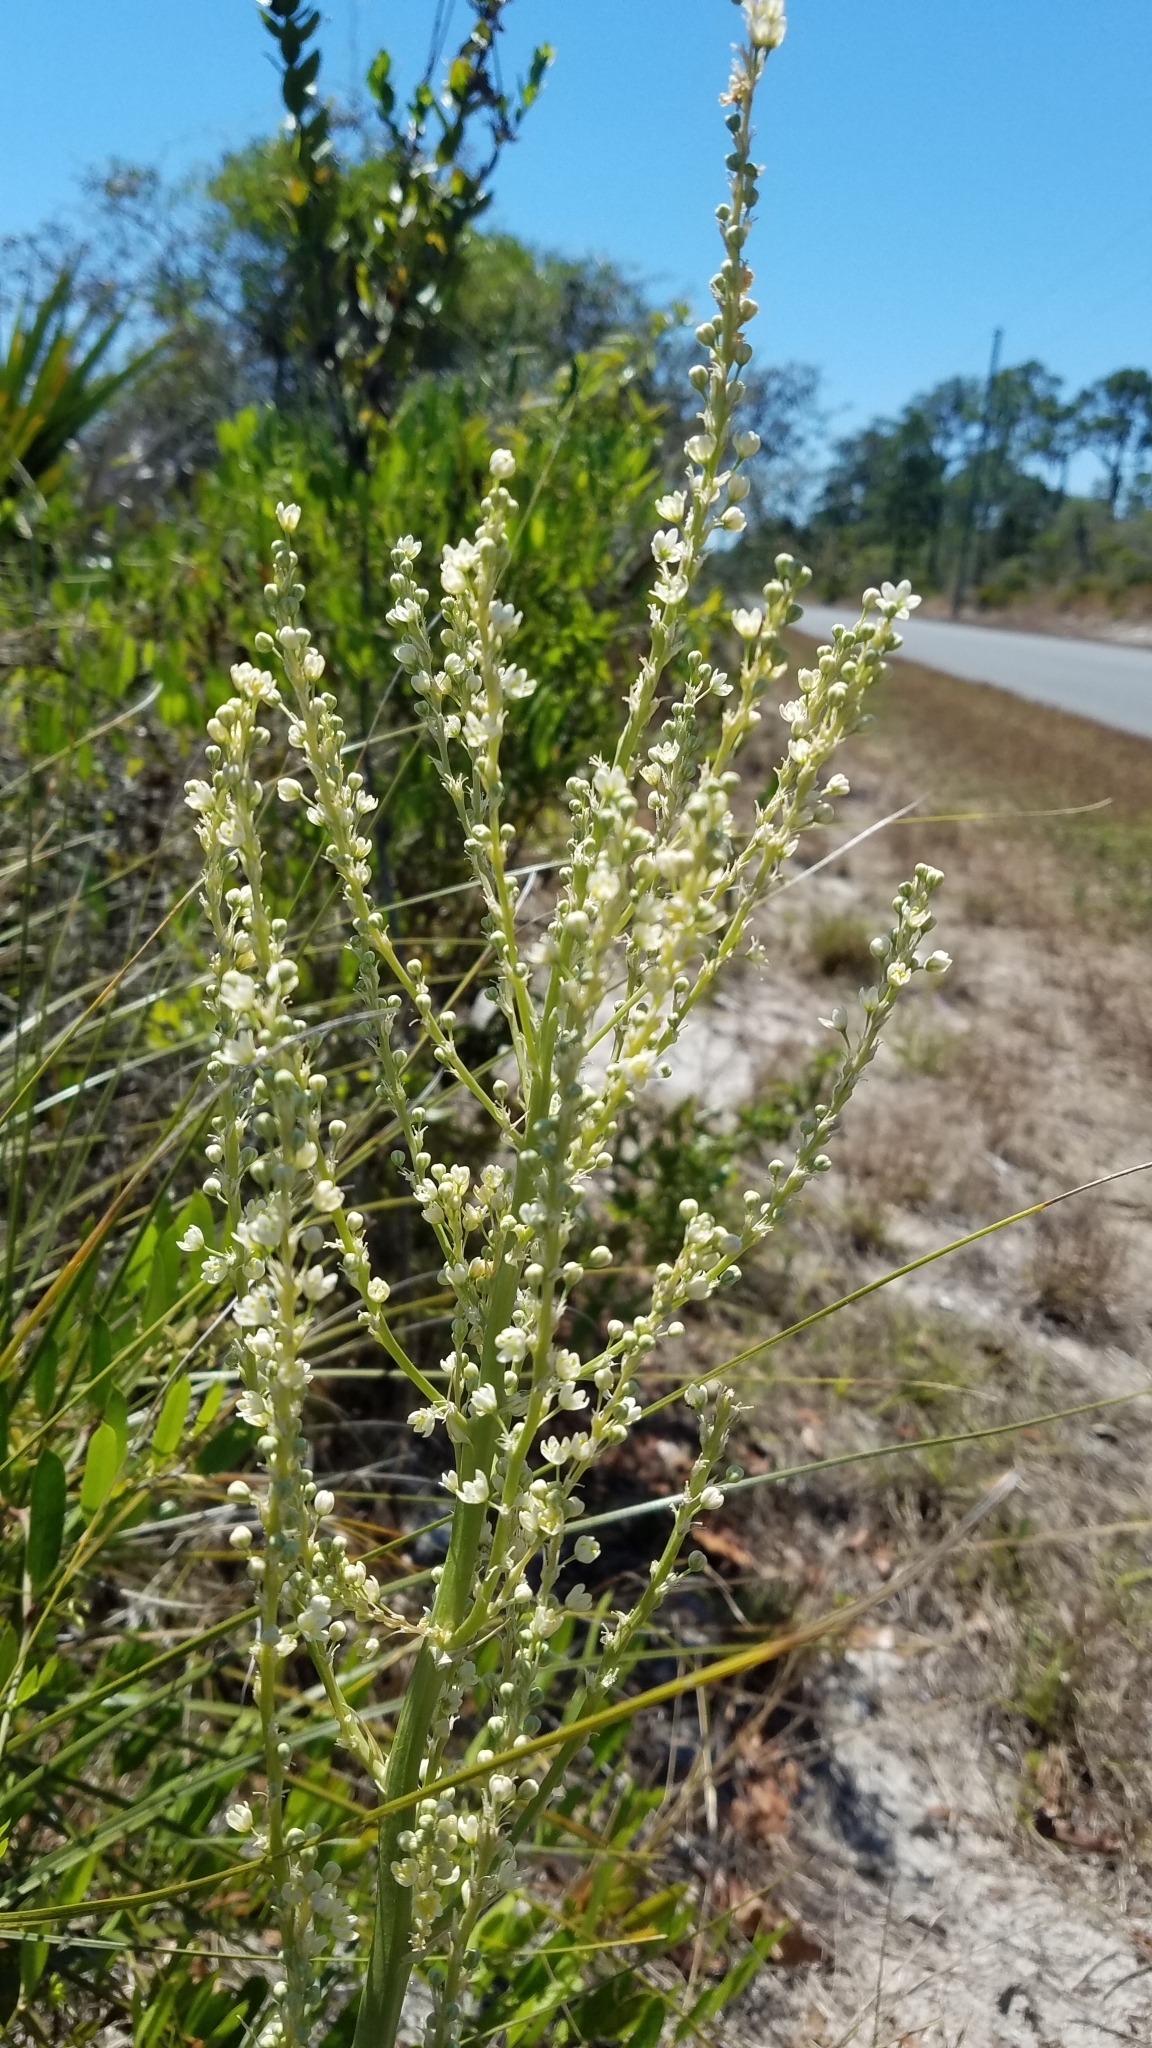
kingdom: Plantae
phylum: Tracheophyta
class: Liliopsida
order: Asparagales
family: Asparagaceae
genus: Nolina
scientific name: Nolina brittoniana
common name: Britton's bear-grass
